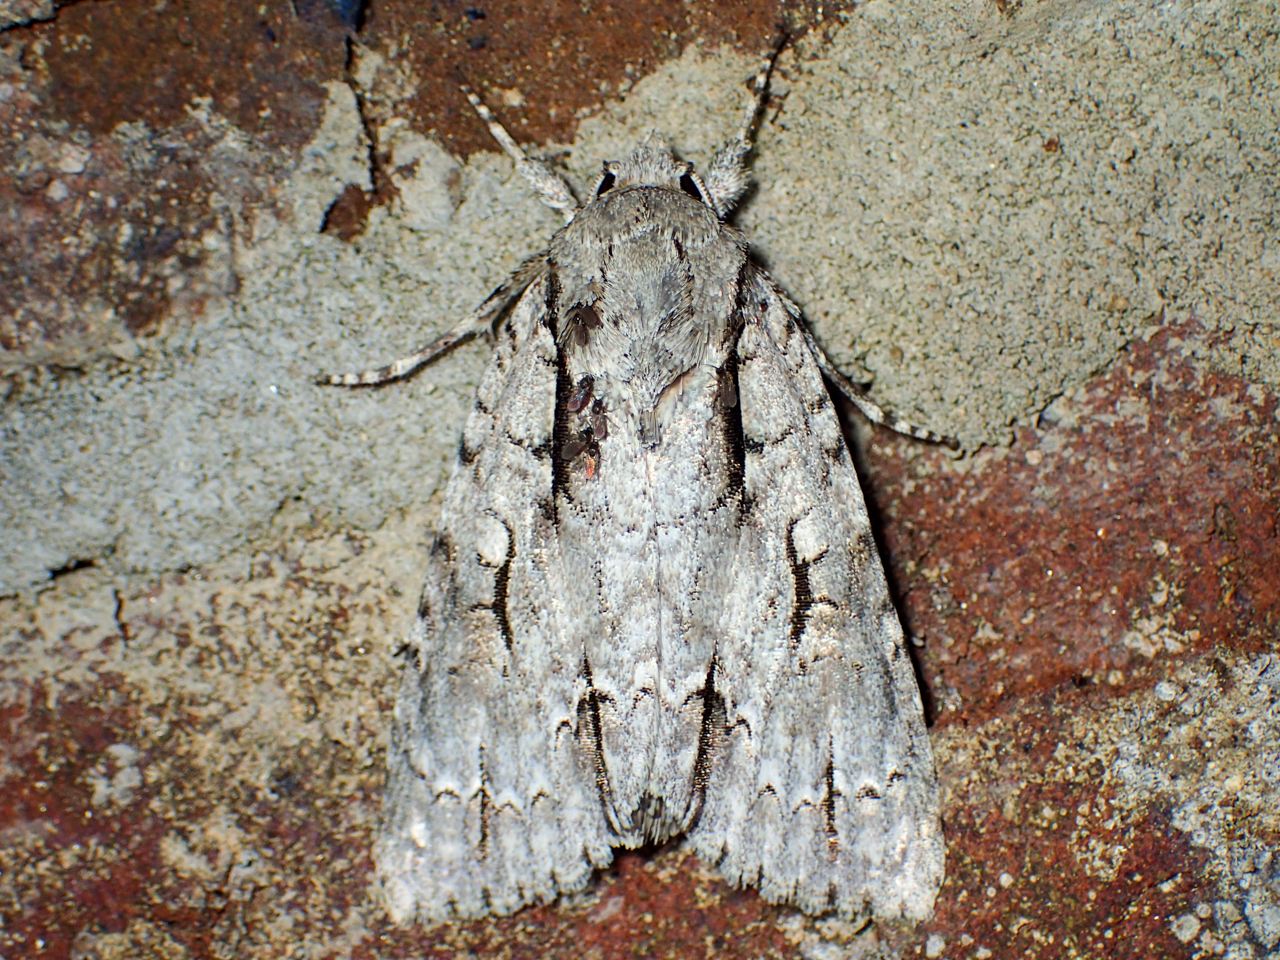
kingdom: Animalia
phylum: Arthropoda
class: Insecta
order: Lepidoptera
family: Noctuidae
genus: Acronicta
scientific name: Acronicta lobeliae
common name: Greater oak dagger
